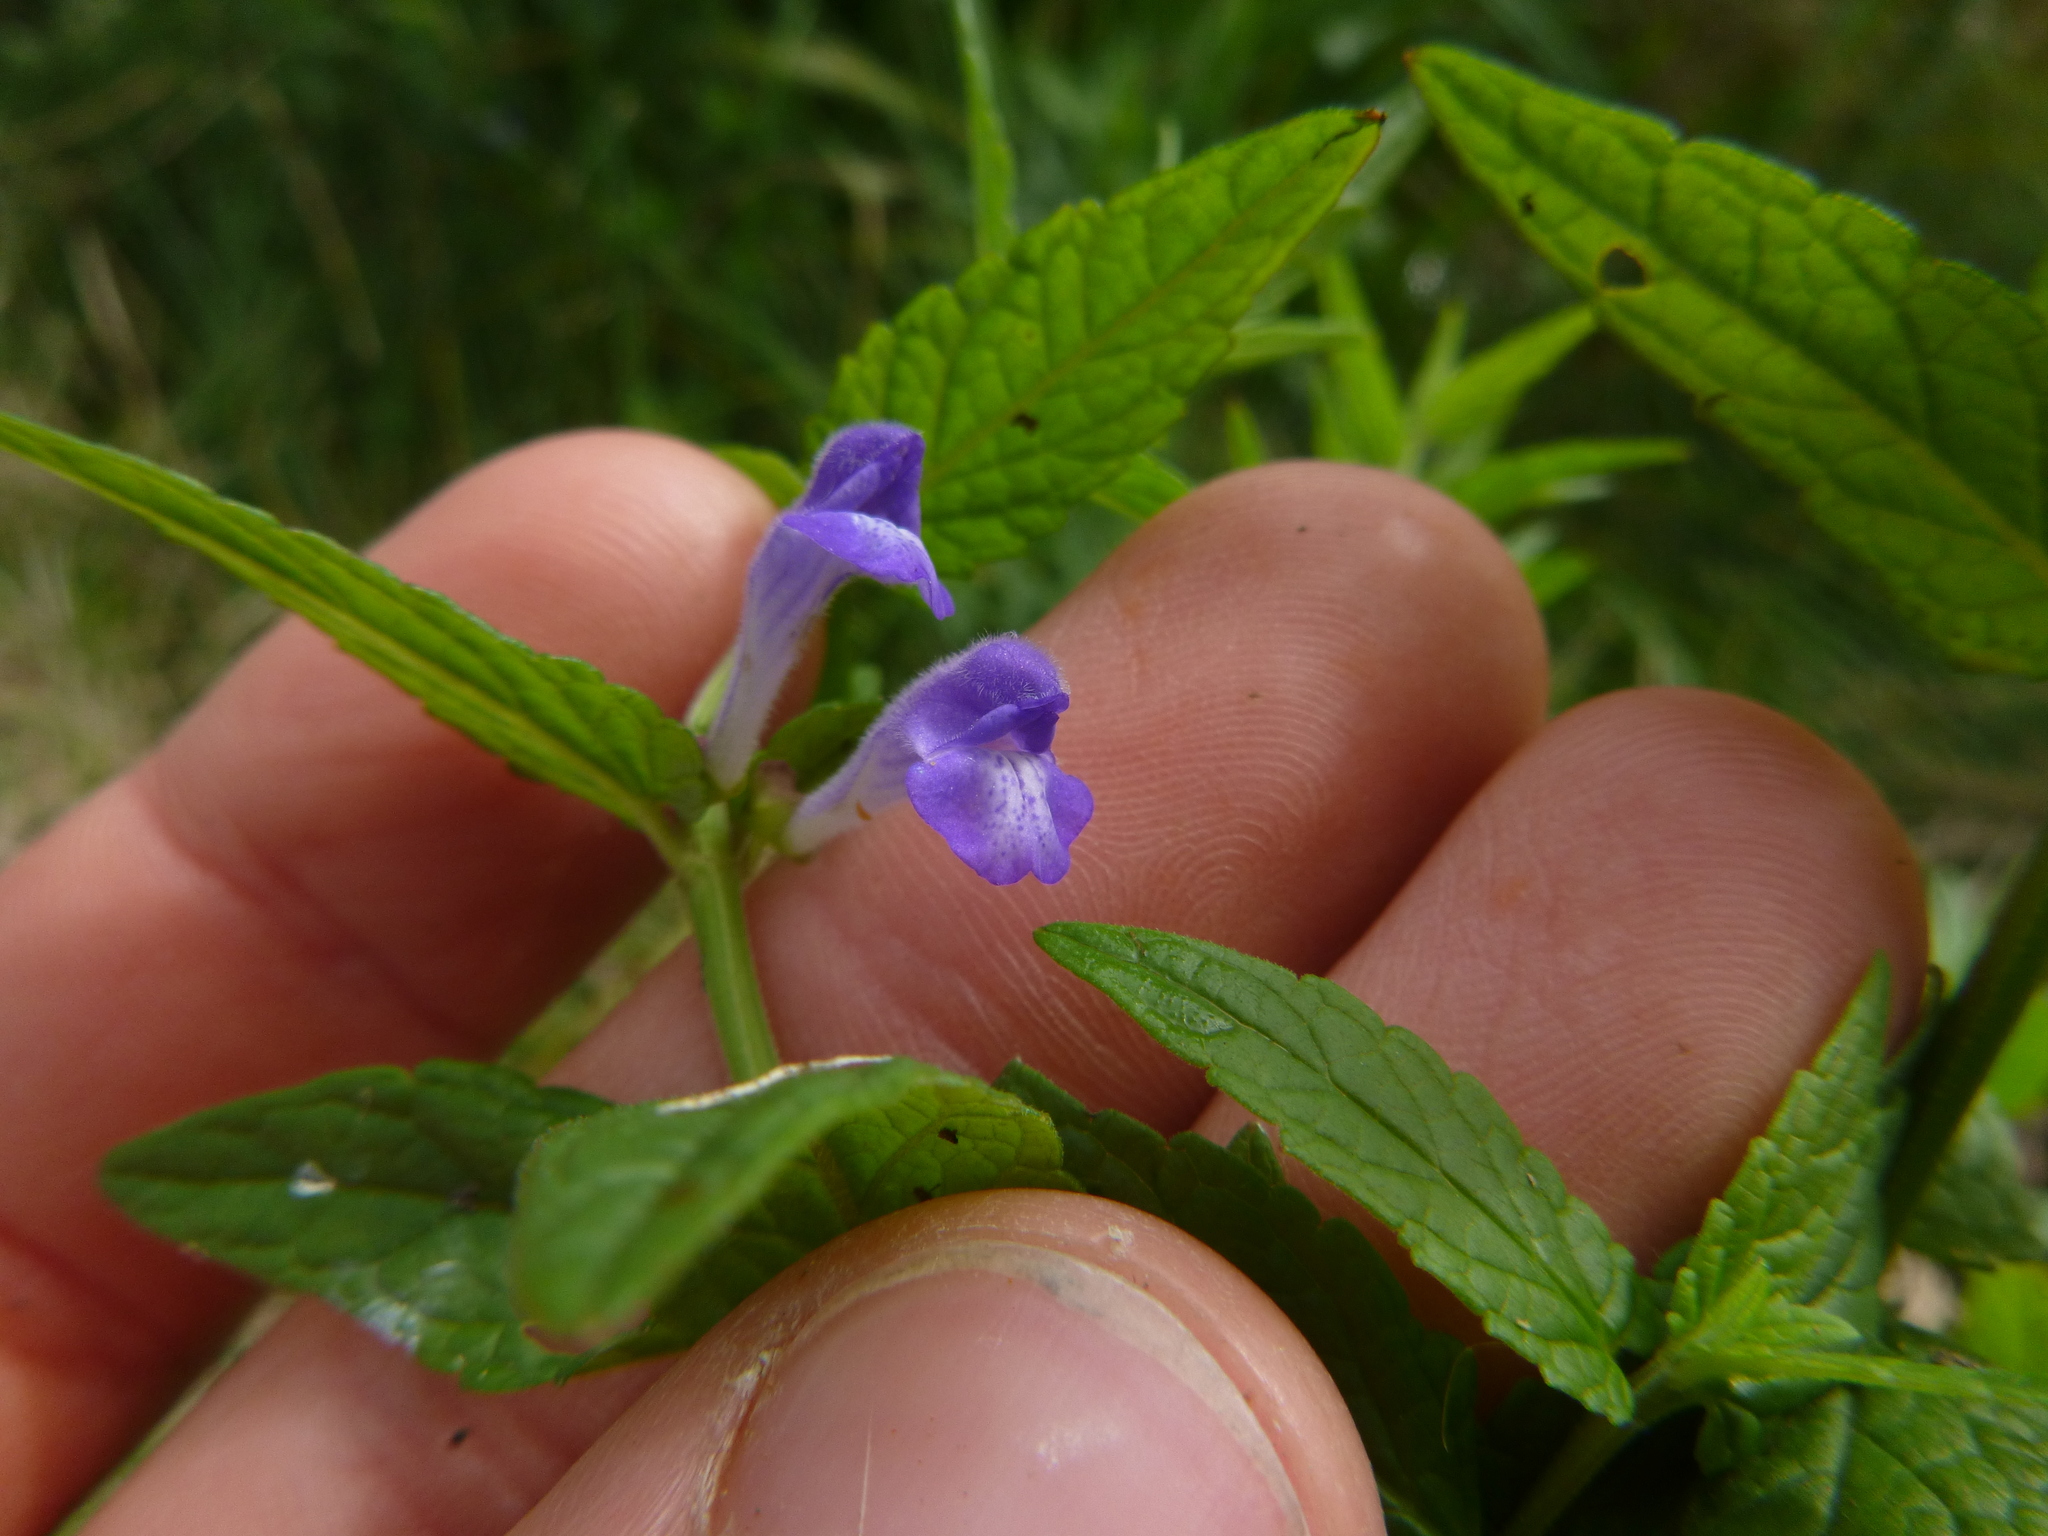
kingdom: Plantae
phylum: Tracheophyta
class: Magnoliopsida
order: Lamiales
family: Lamiaceae
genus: Scutellaria
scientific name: Scutellaria galericulata
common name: Skullcap
